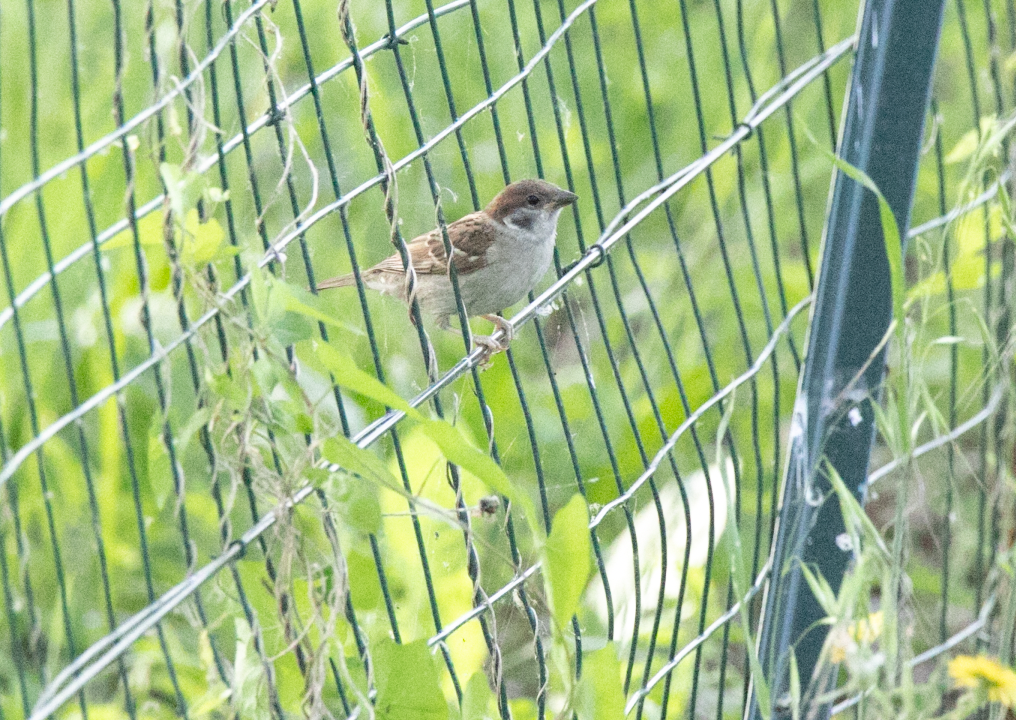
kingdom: Animalia
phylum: Chordata
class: Aves
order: Passeriformes
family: Passeridae
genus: Passer
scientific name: Passer montanus
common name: Eurasian tree sparrow
